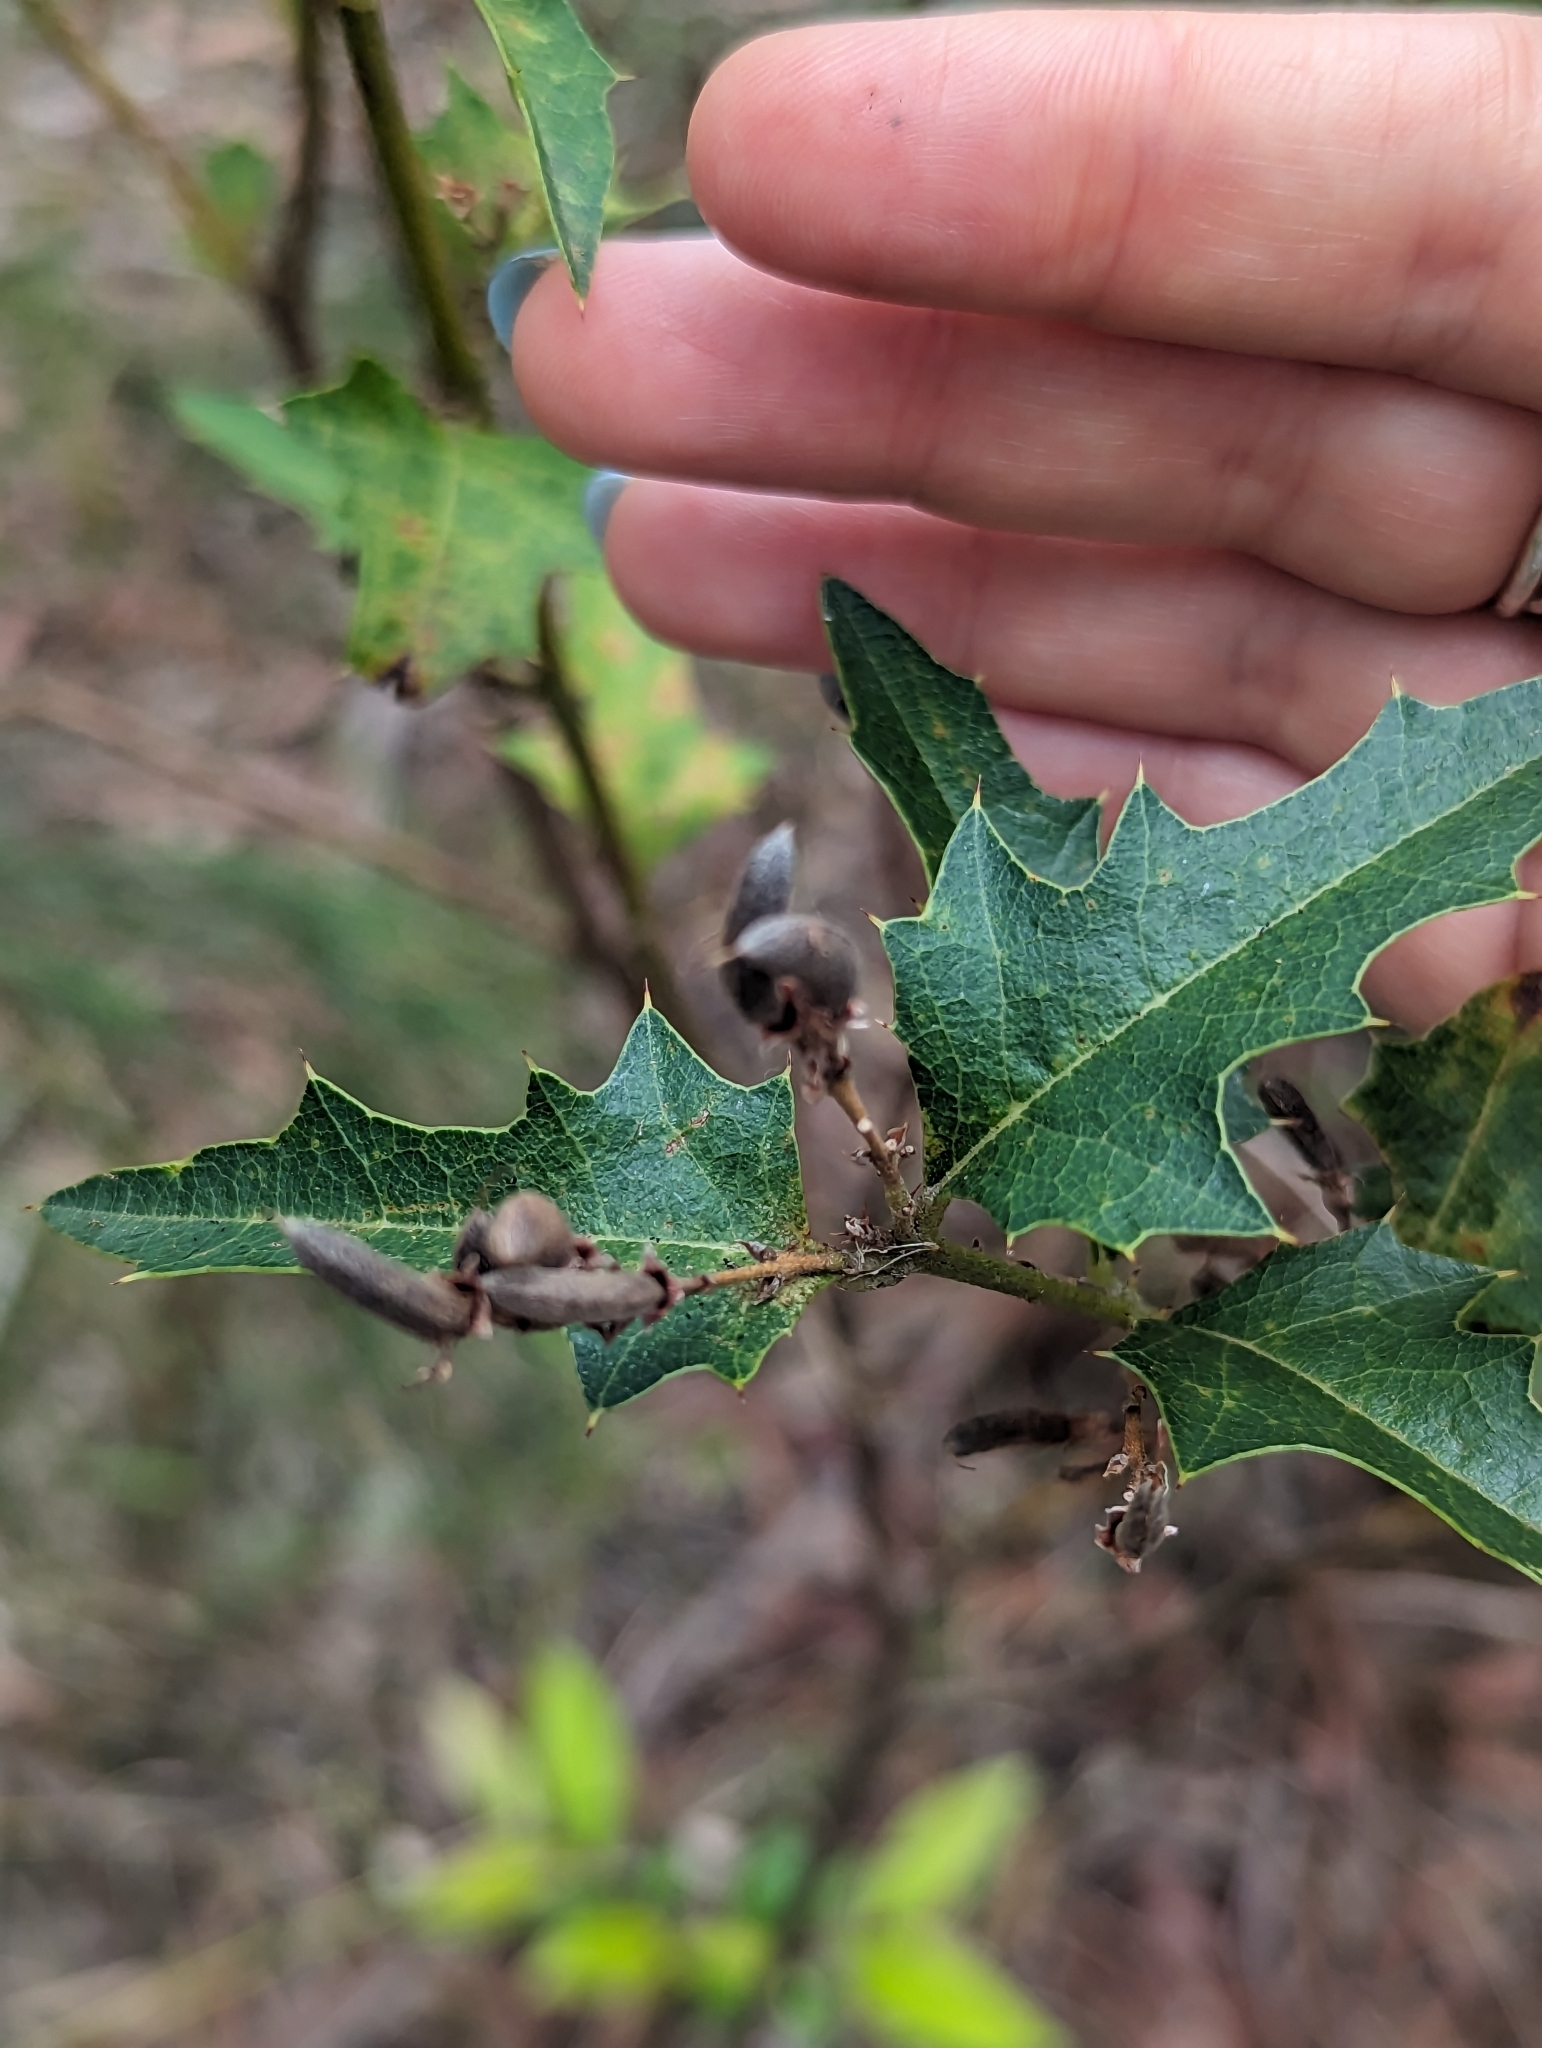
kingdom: Plantae
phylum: Tracheophyta
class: Magnoliopsida
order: Fabales
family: Fabaceae
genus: Podolobium
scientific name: Podolobium ilicifolium
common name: Native holly
